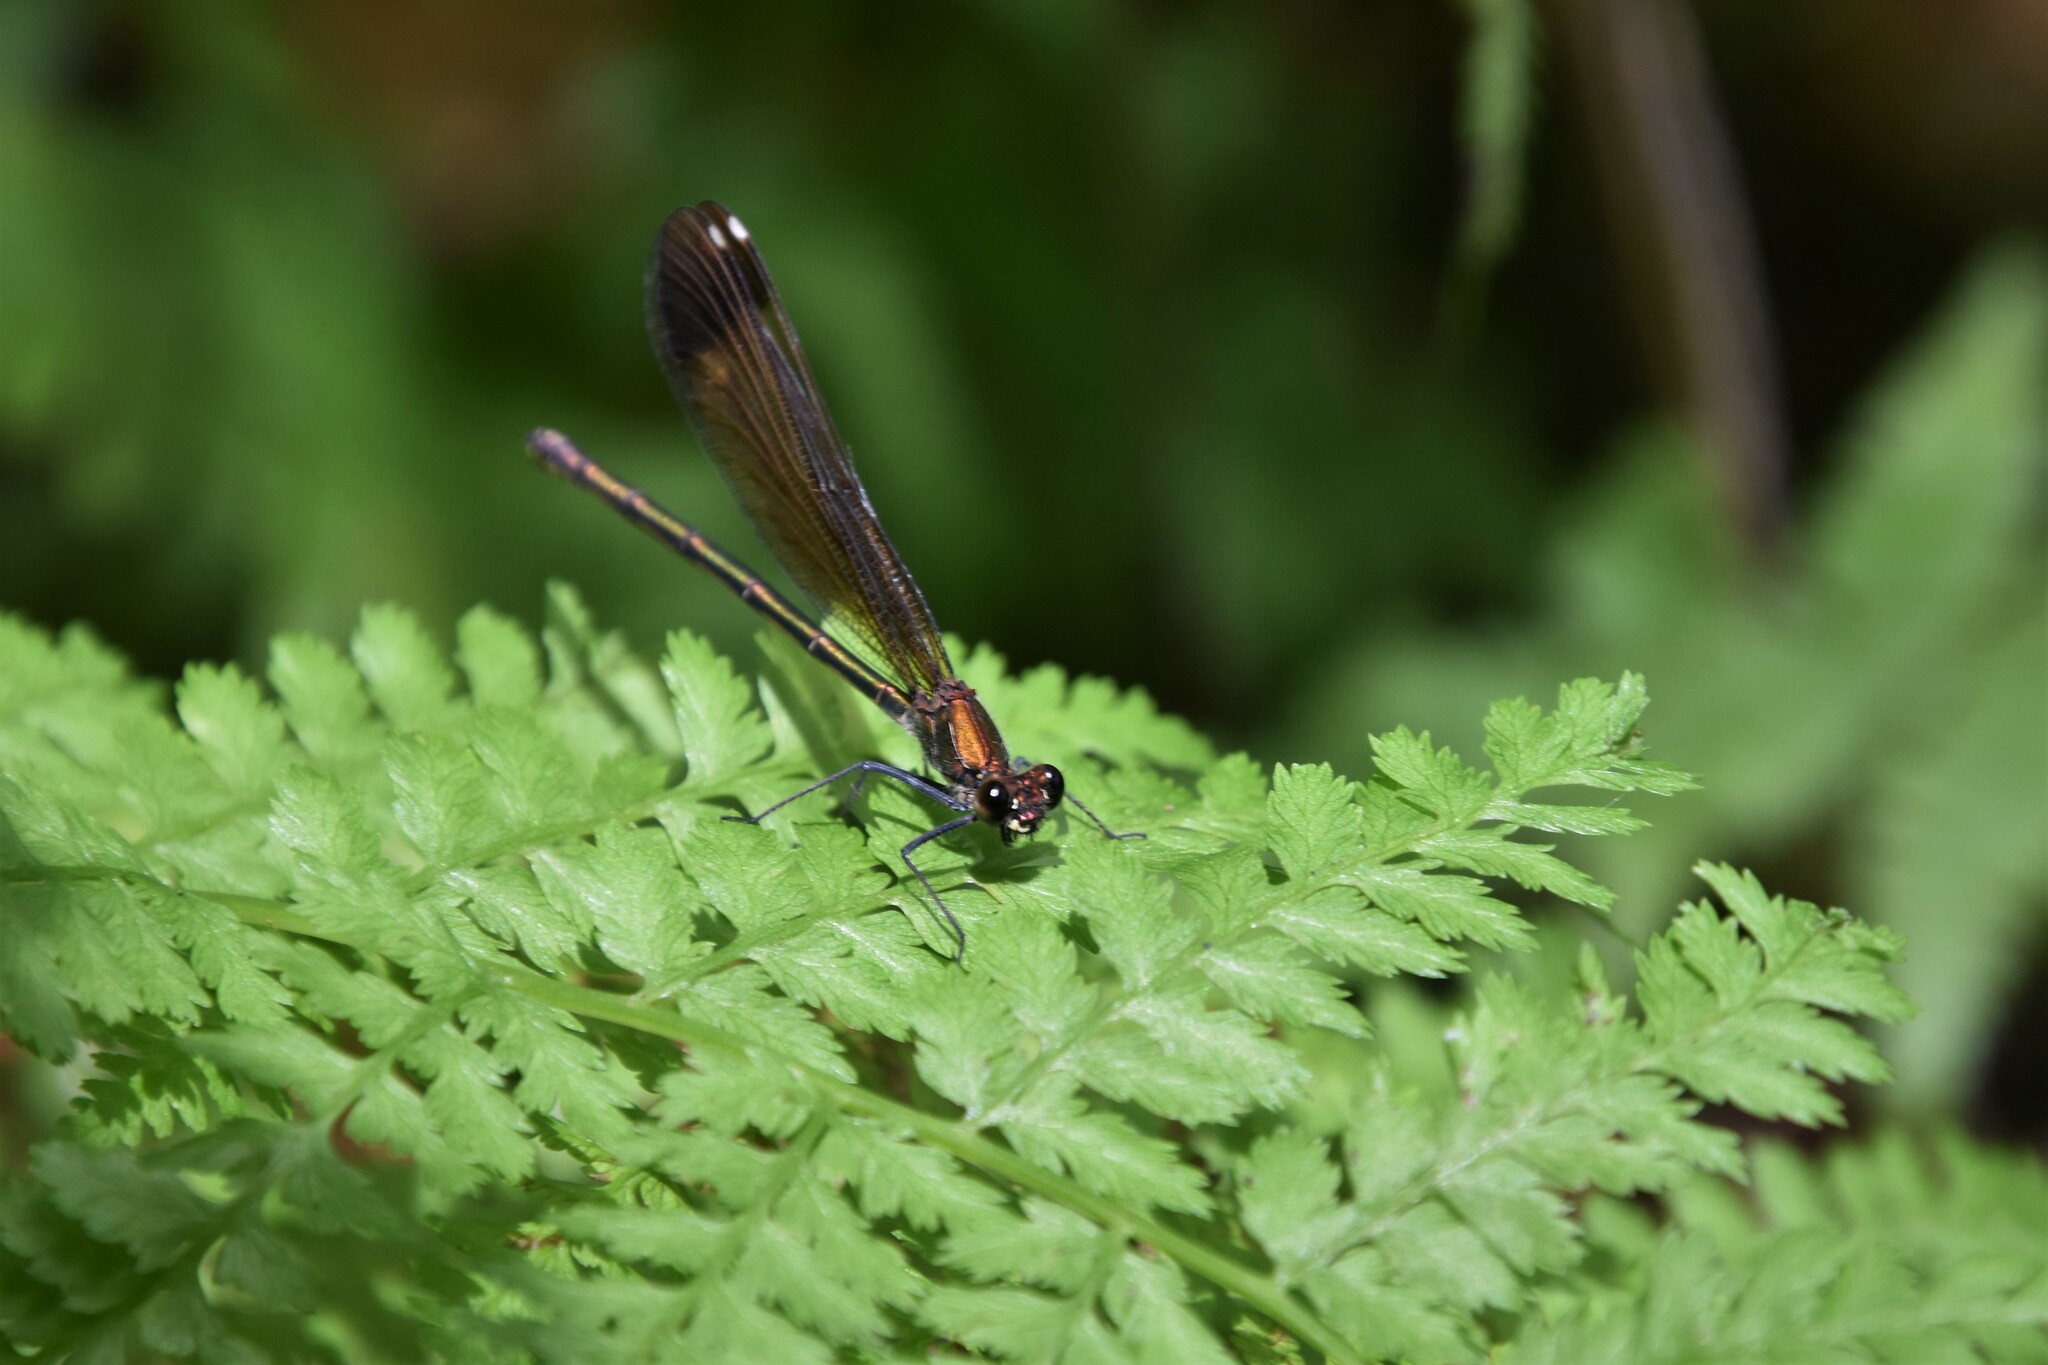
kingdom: Animalia
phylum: Arthropoda
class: Insecta
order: Odonata
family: Calopterygidae
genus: Calopteryx
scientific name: Calopteryx haemorrhoidalis
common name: Copper demoiselle
